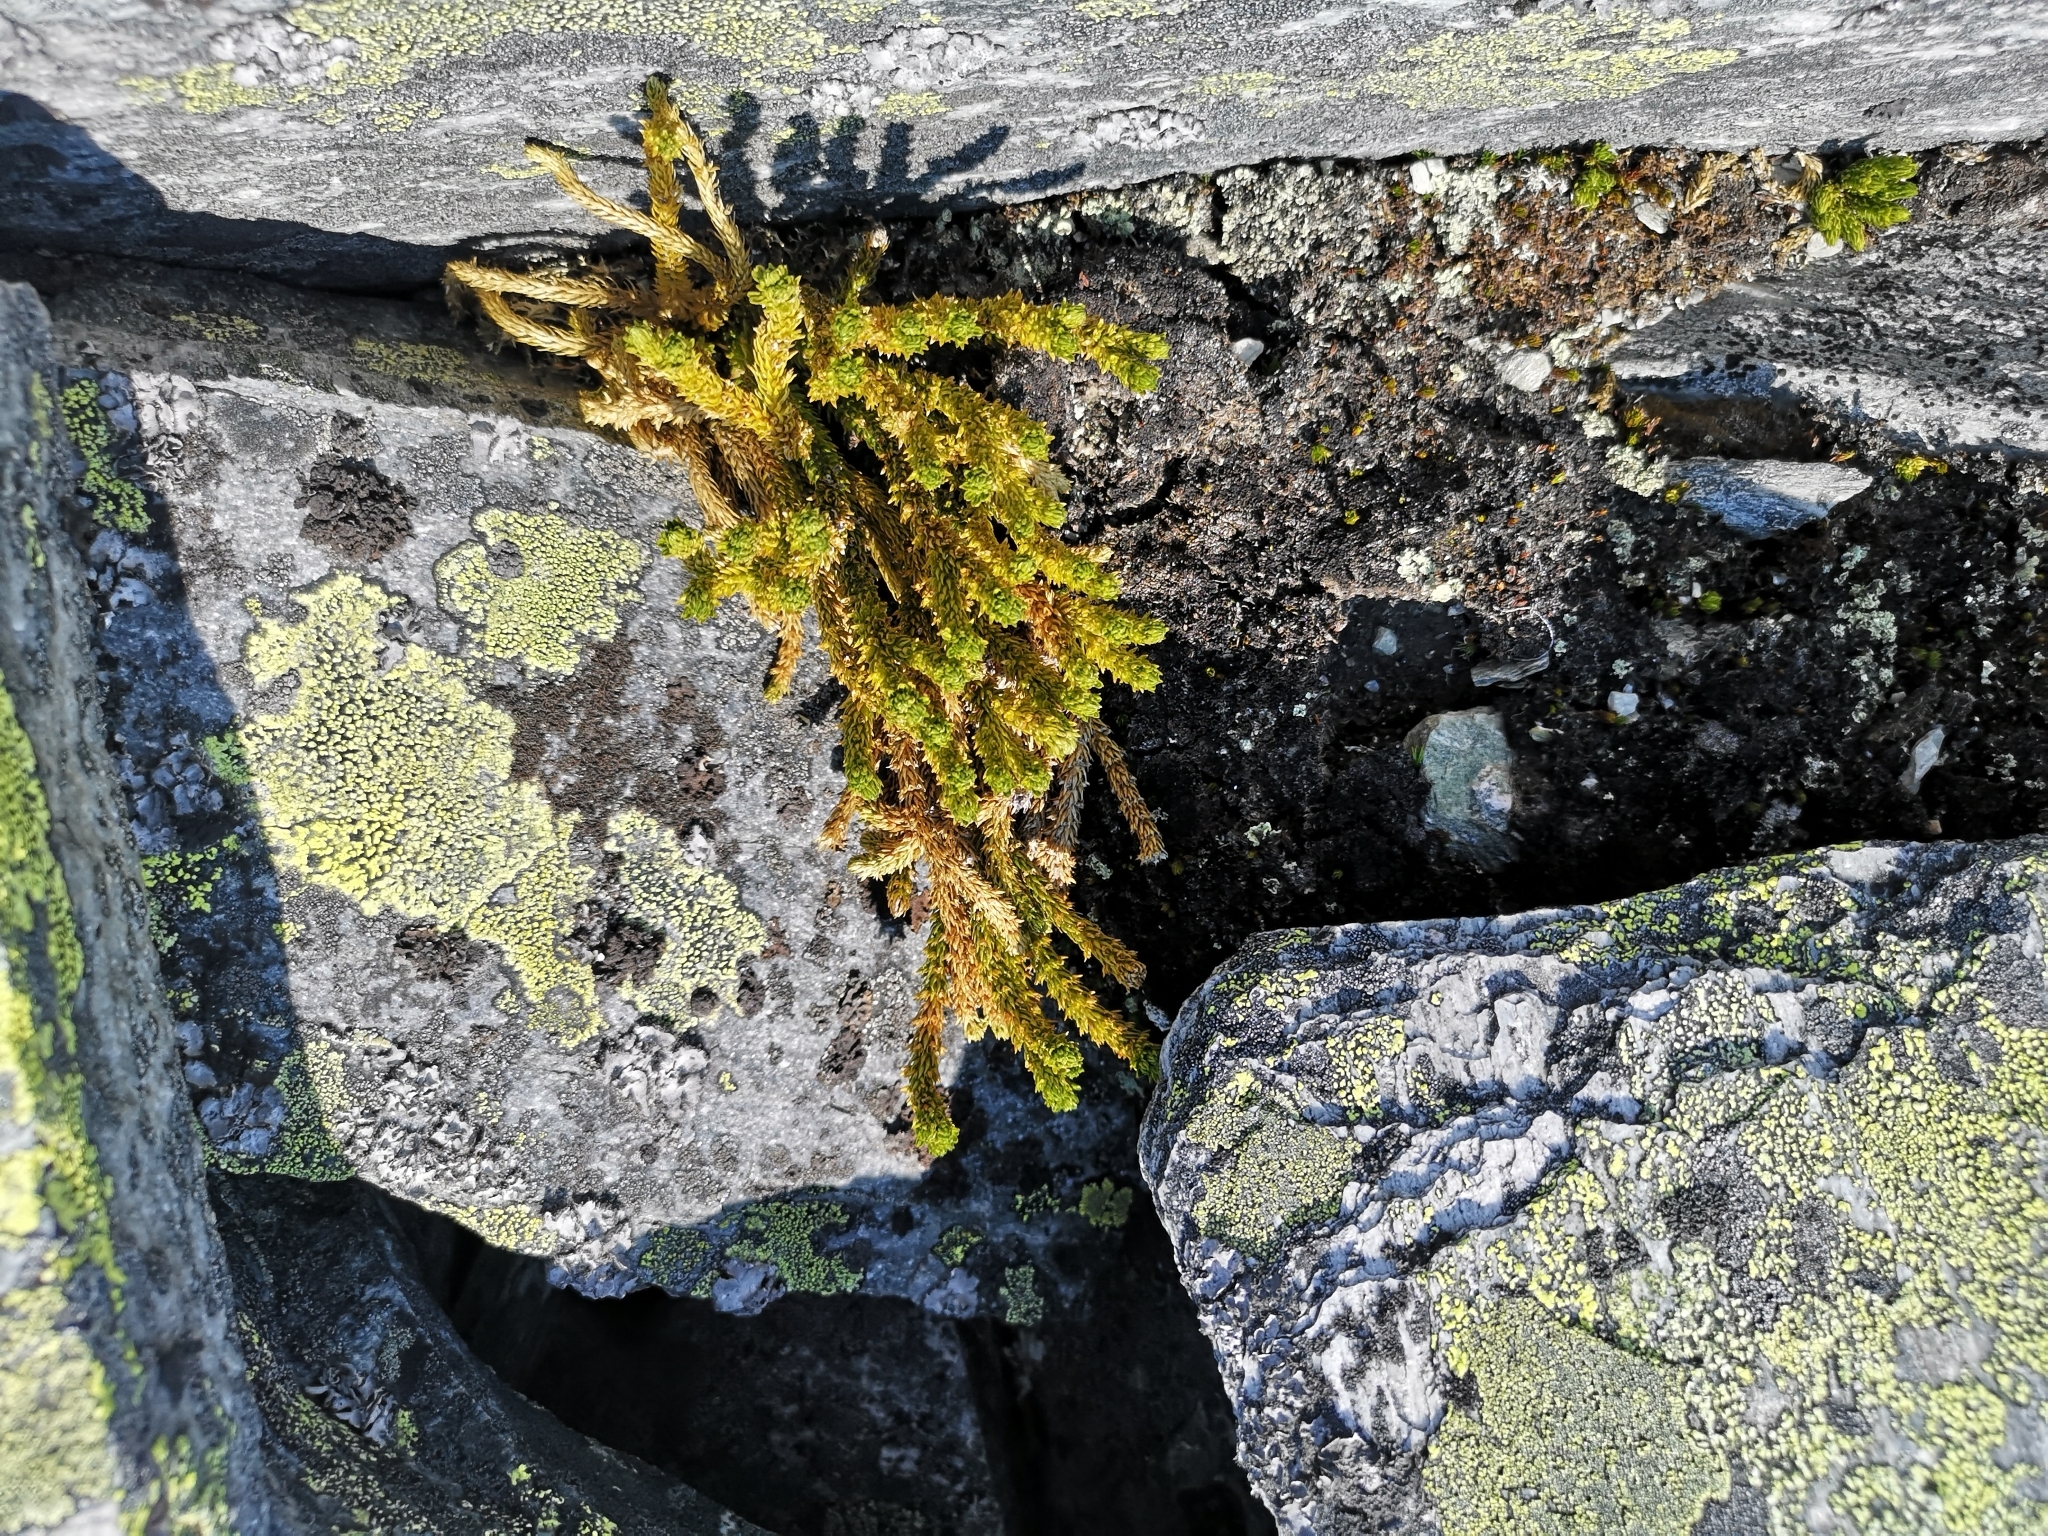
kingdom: Plantae
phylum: Tracheophyta
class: Lycopodiopsida
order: Lycopodiales
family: Lycopodiaceae
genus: Huperzia
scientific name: Huperzia selago
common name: Northern firmoss
